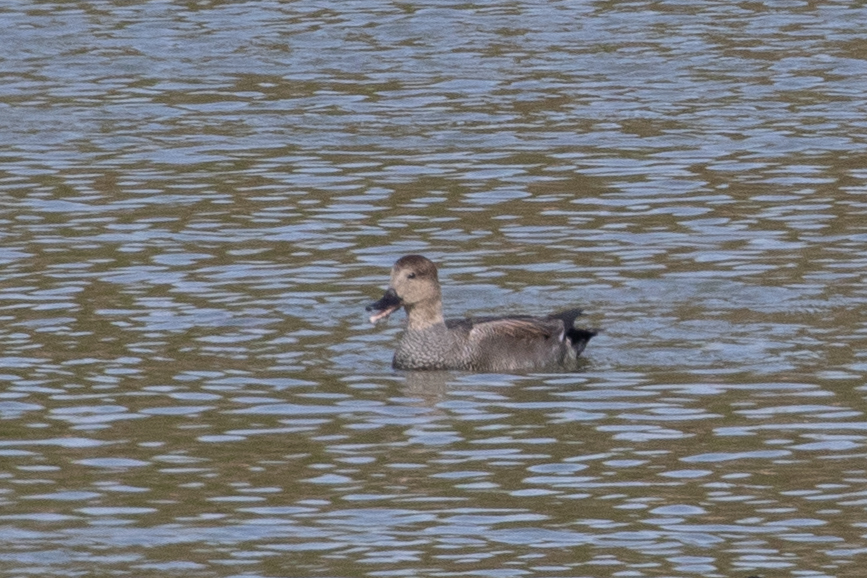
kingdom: Animalia
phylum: Chordata
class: Aves
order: Anseriformes
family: Anatidae
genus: Mareca
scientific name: Mareca strepera
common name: Gadwall
